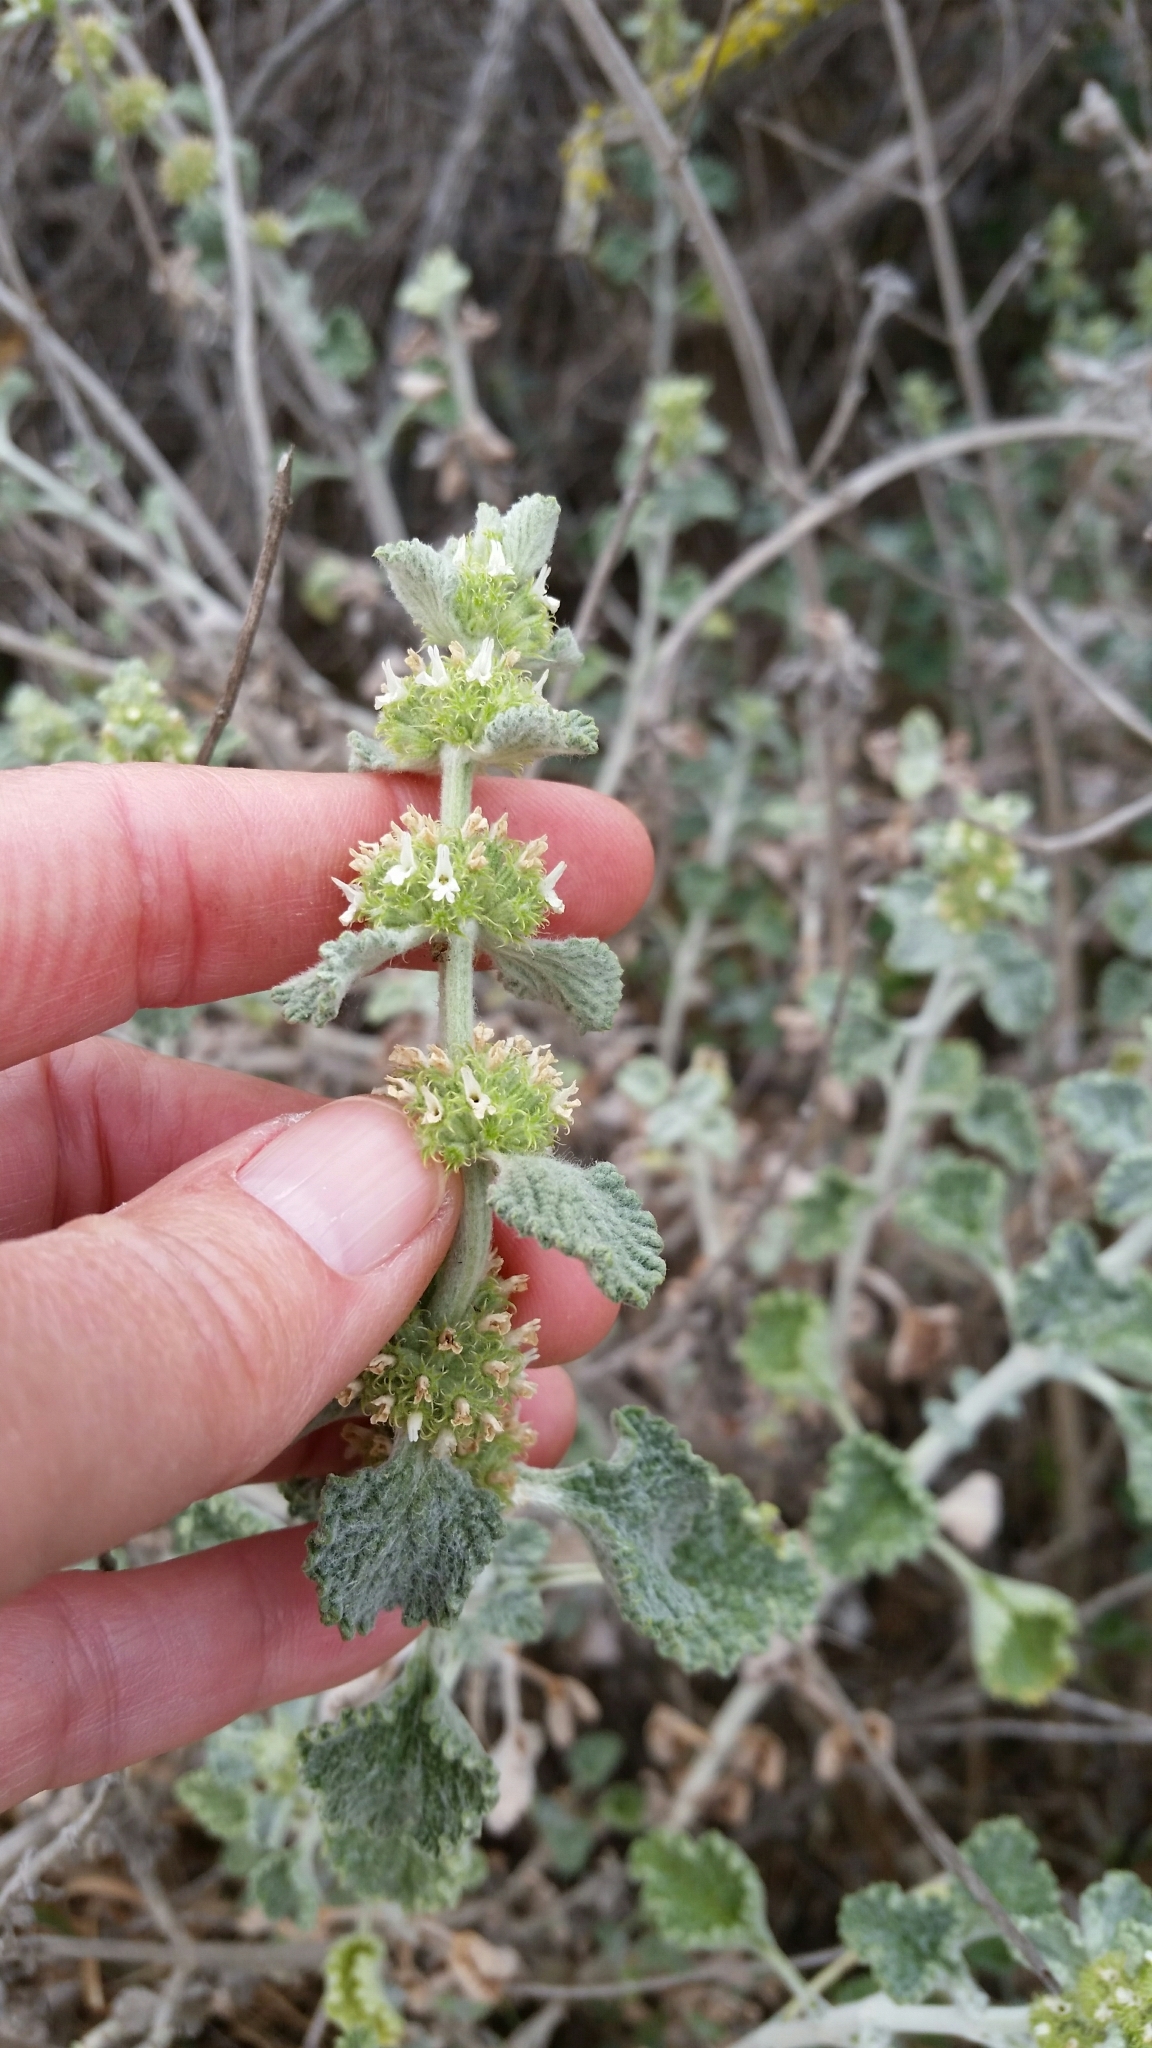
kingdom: Plantae
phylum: Tracheophyta
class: Magnoliopsida
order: Lamiales
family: Lamiaceae
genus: Marrubium
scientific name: Marrubium vulgare
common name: Horehound
